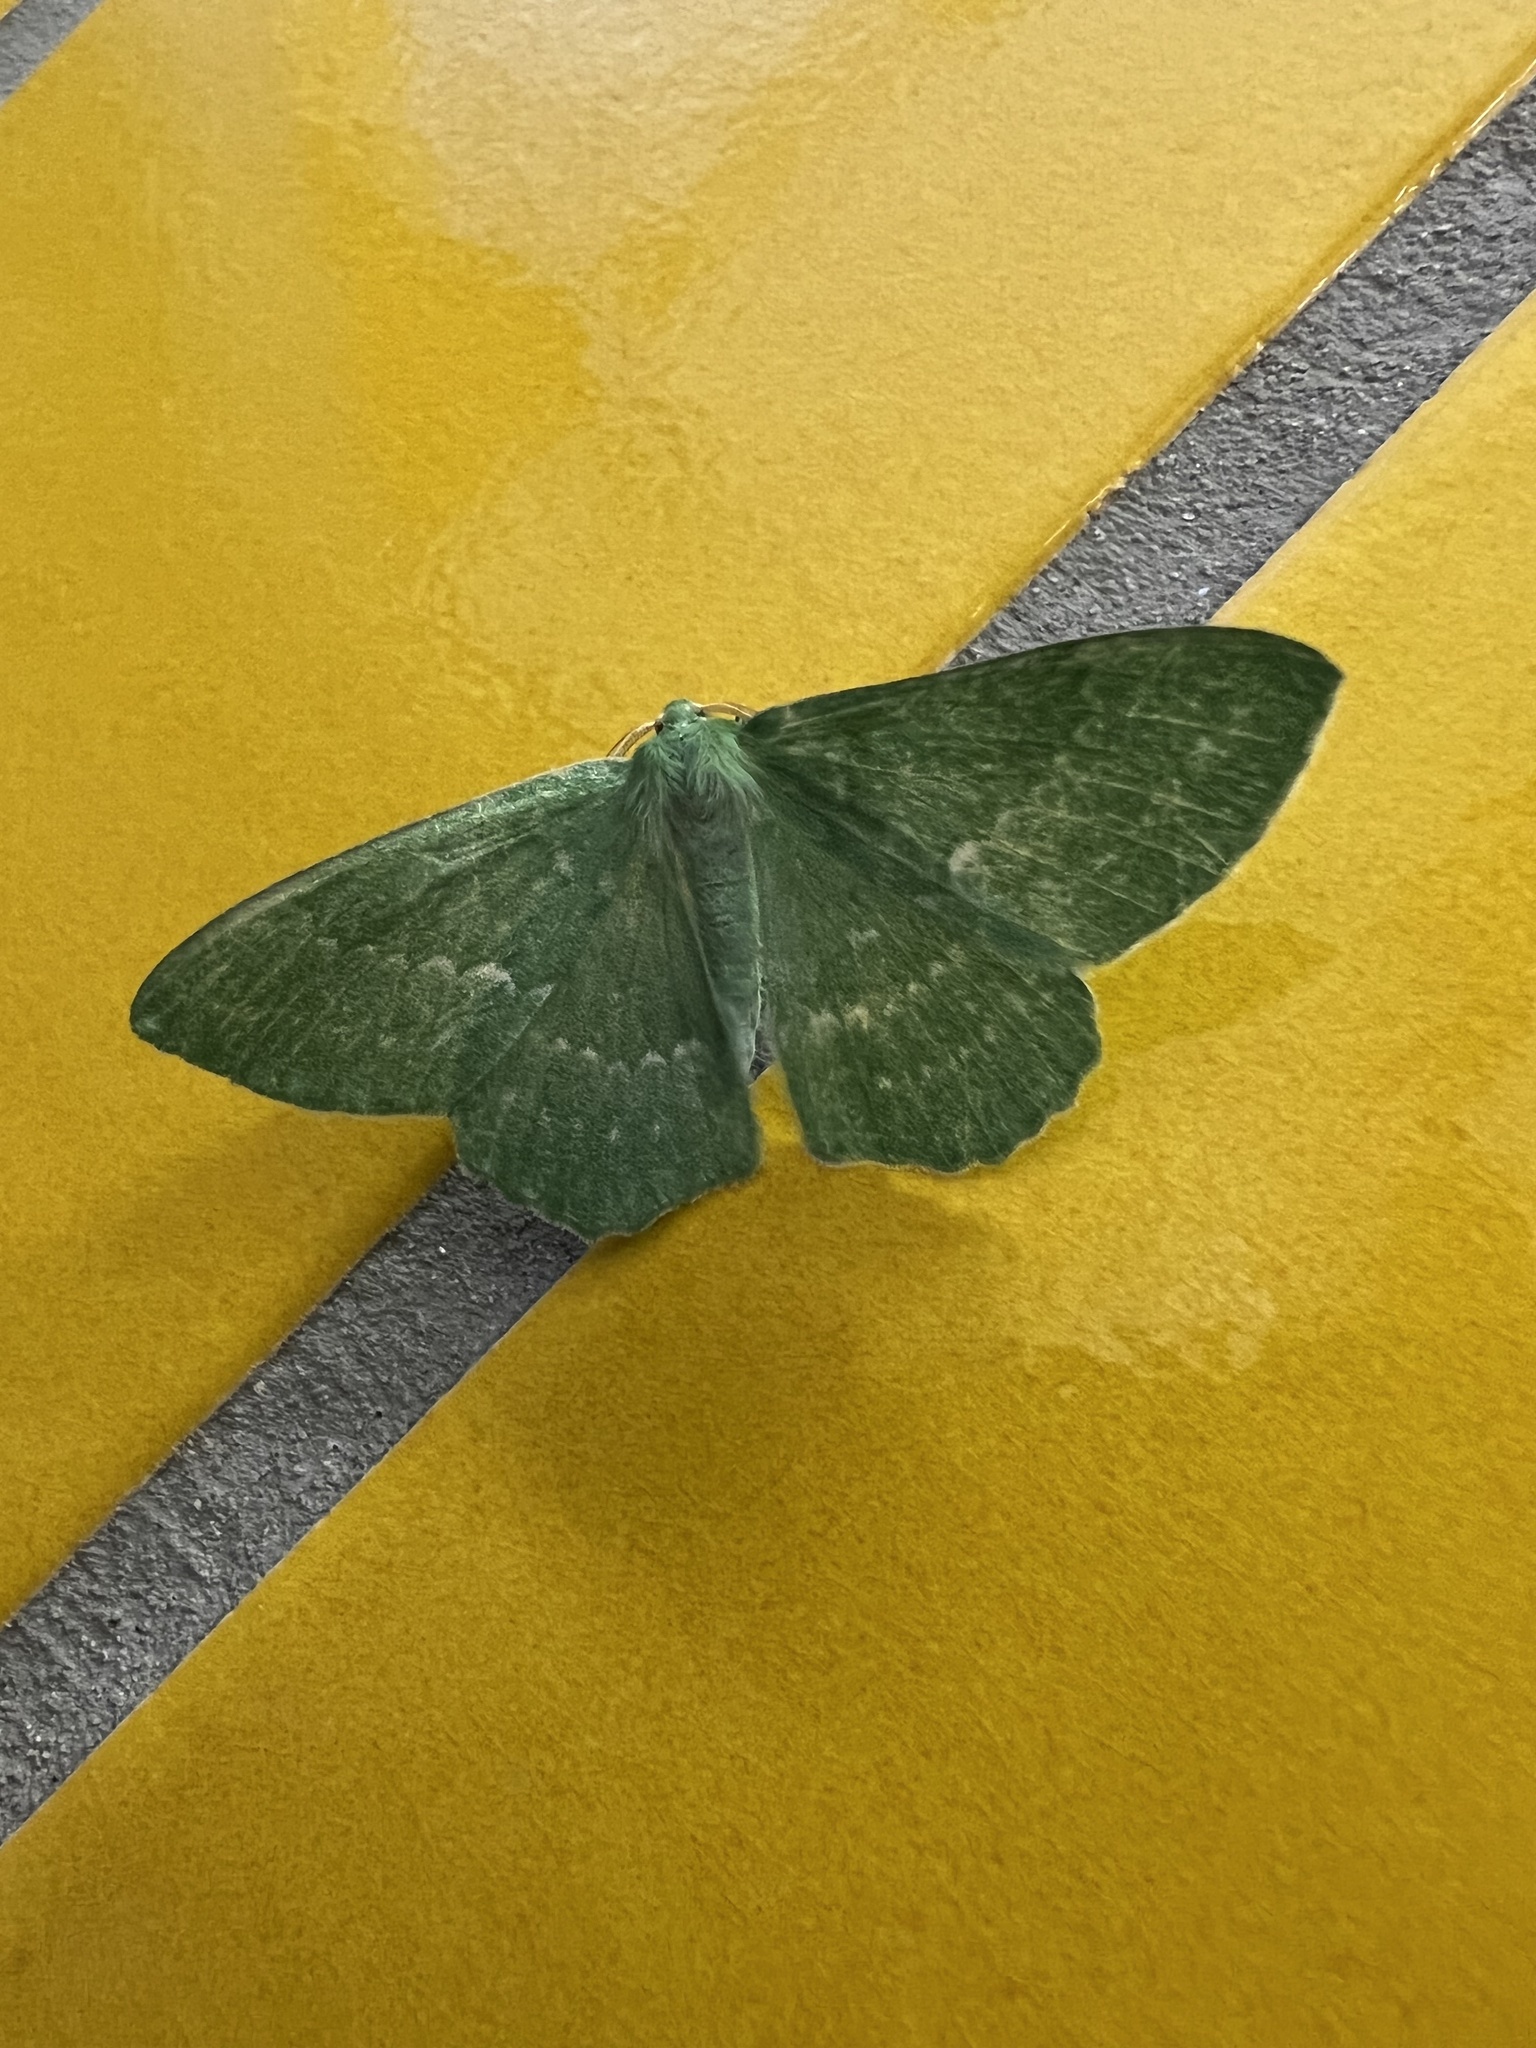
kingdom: Animalia
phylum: Arthropoda
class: Insecta
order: Lepidoptera
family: Geometridae
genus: Geometra
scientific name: Geometra papilionaria
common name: Large emerald
